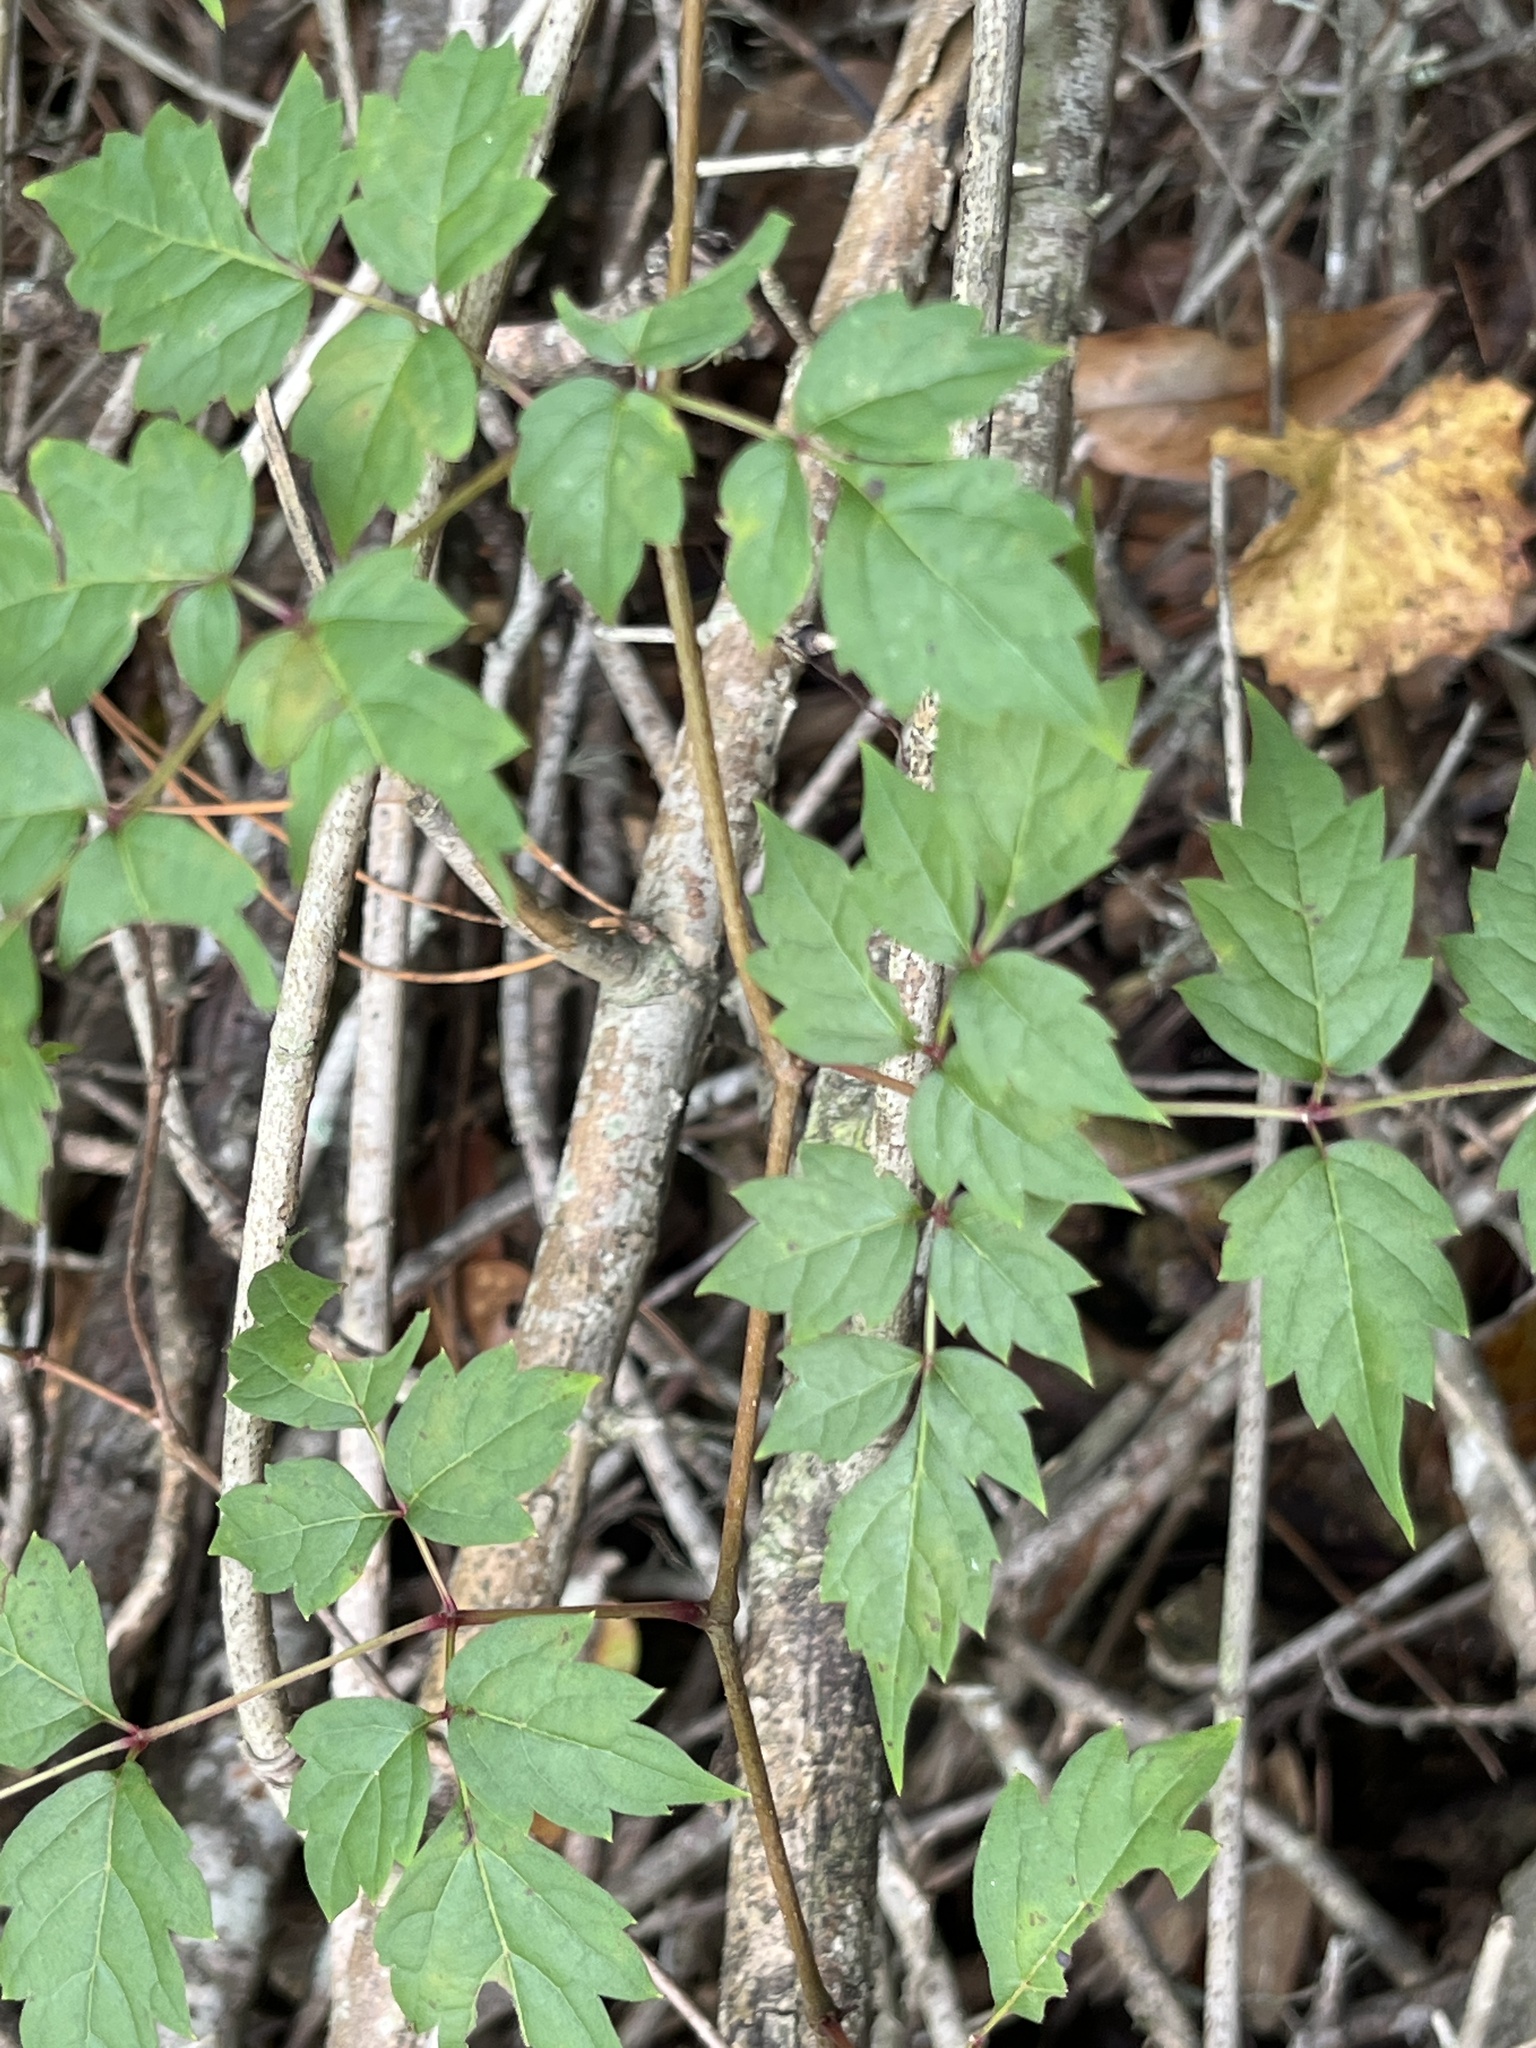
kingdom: Plantae
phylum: Tracheophyta
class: Magnoliopsida
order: Vitales
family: Vitaceae
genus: Nekemias
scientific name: Nekemias arborea
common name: Peppervine
